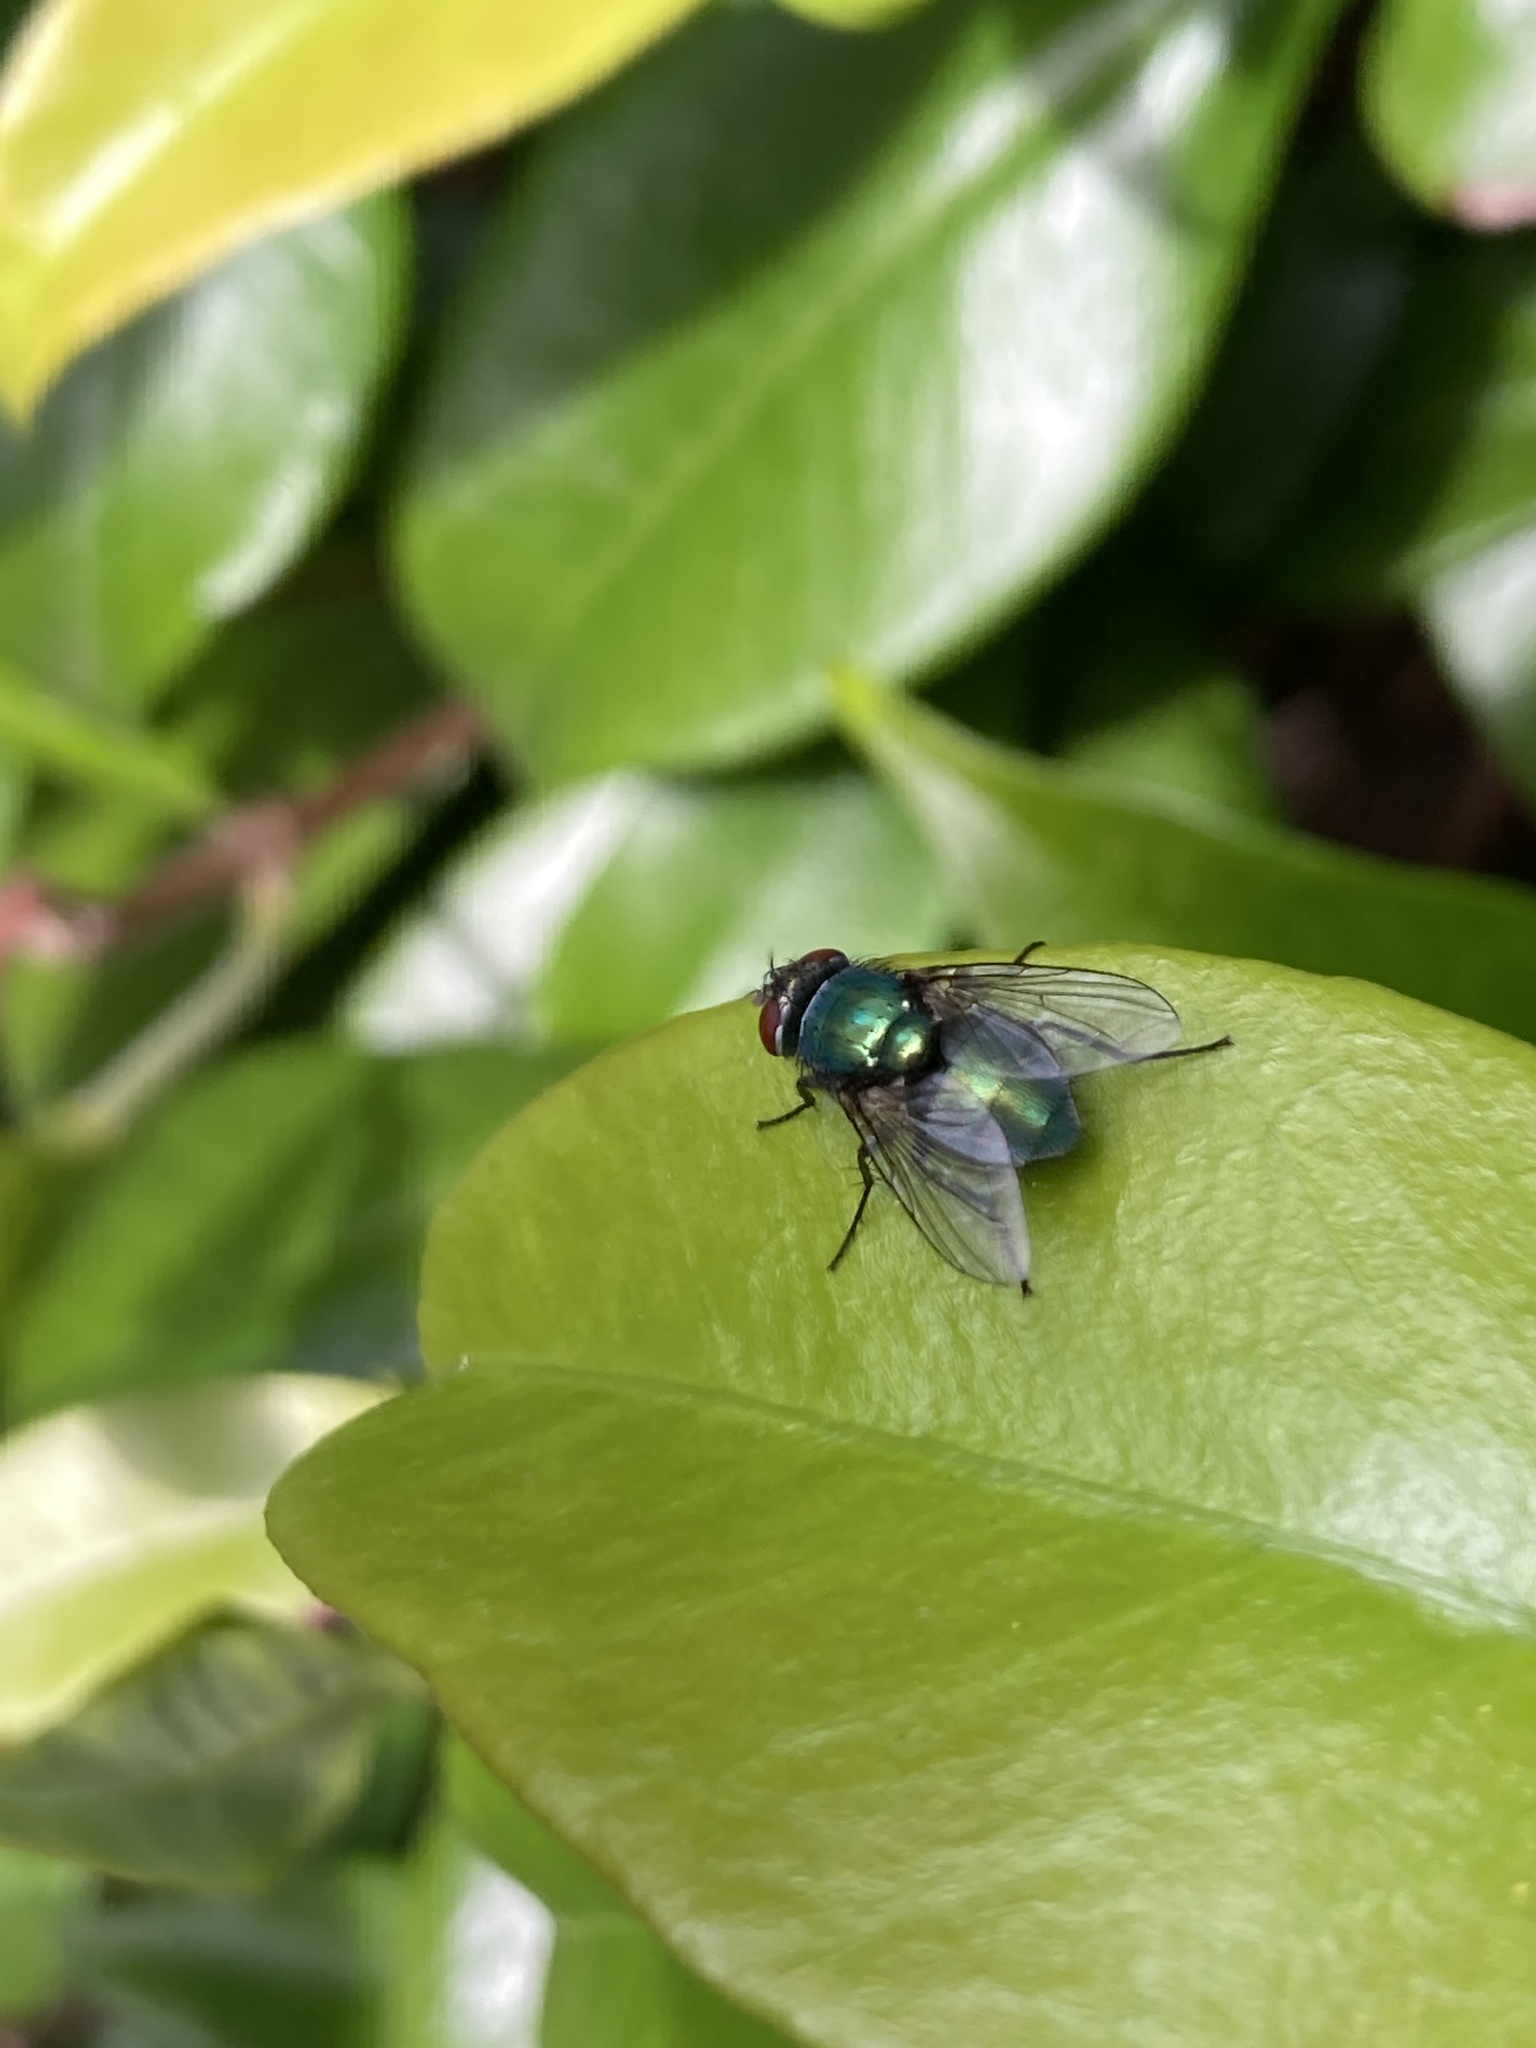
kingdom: Animalia
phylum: Arthropoda
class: Insecta
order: Diptera
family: Calliphoridae
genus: Lucilia
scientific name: Lucilia
